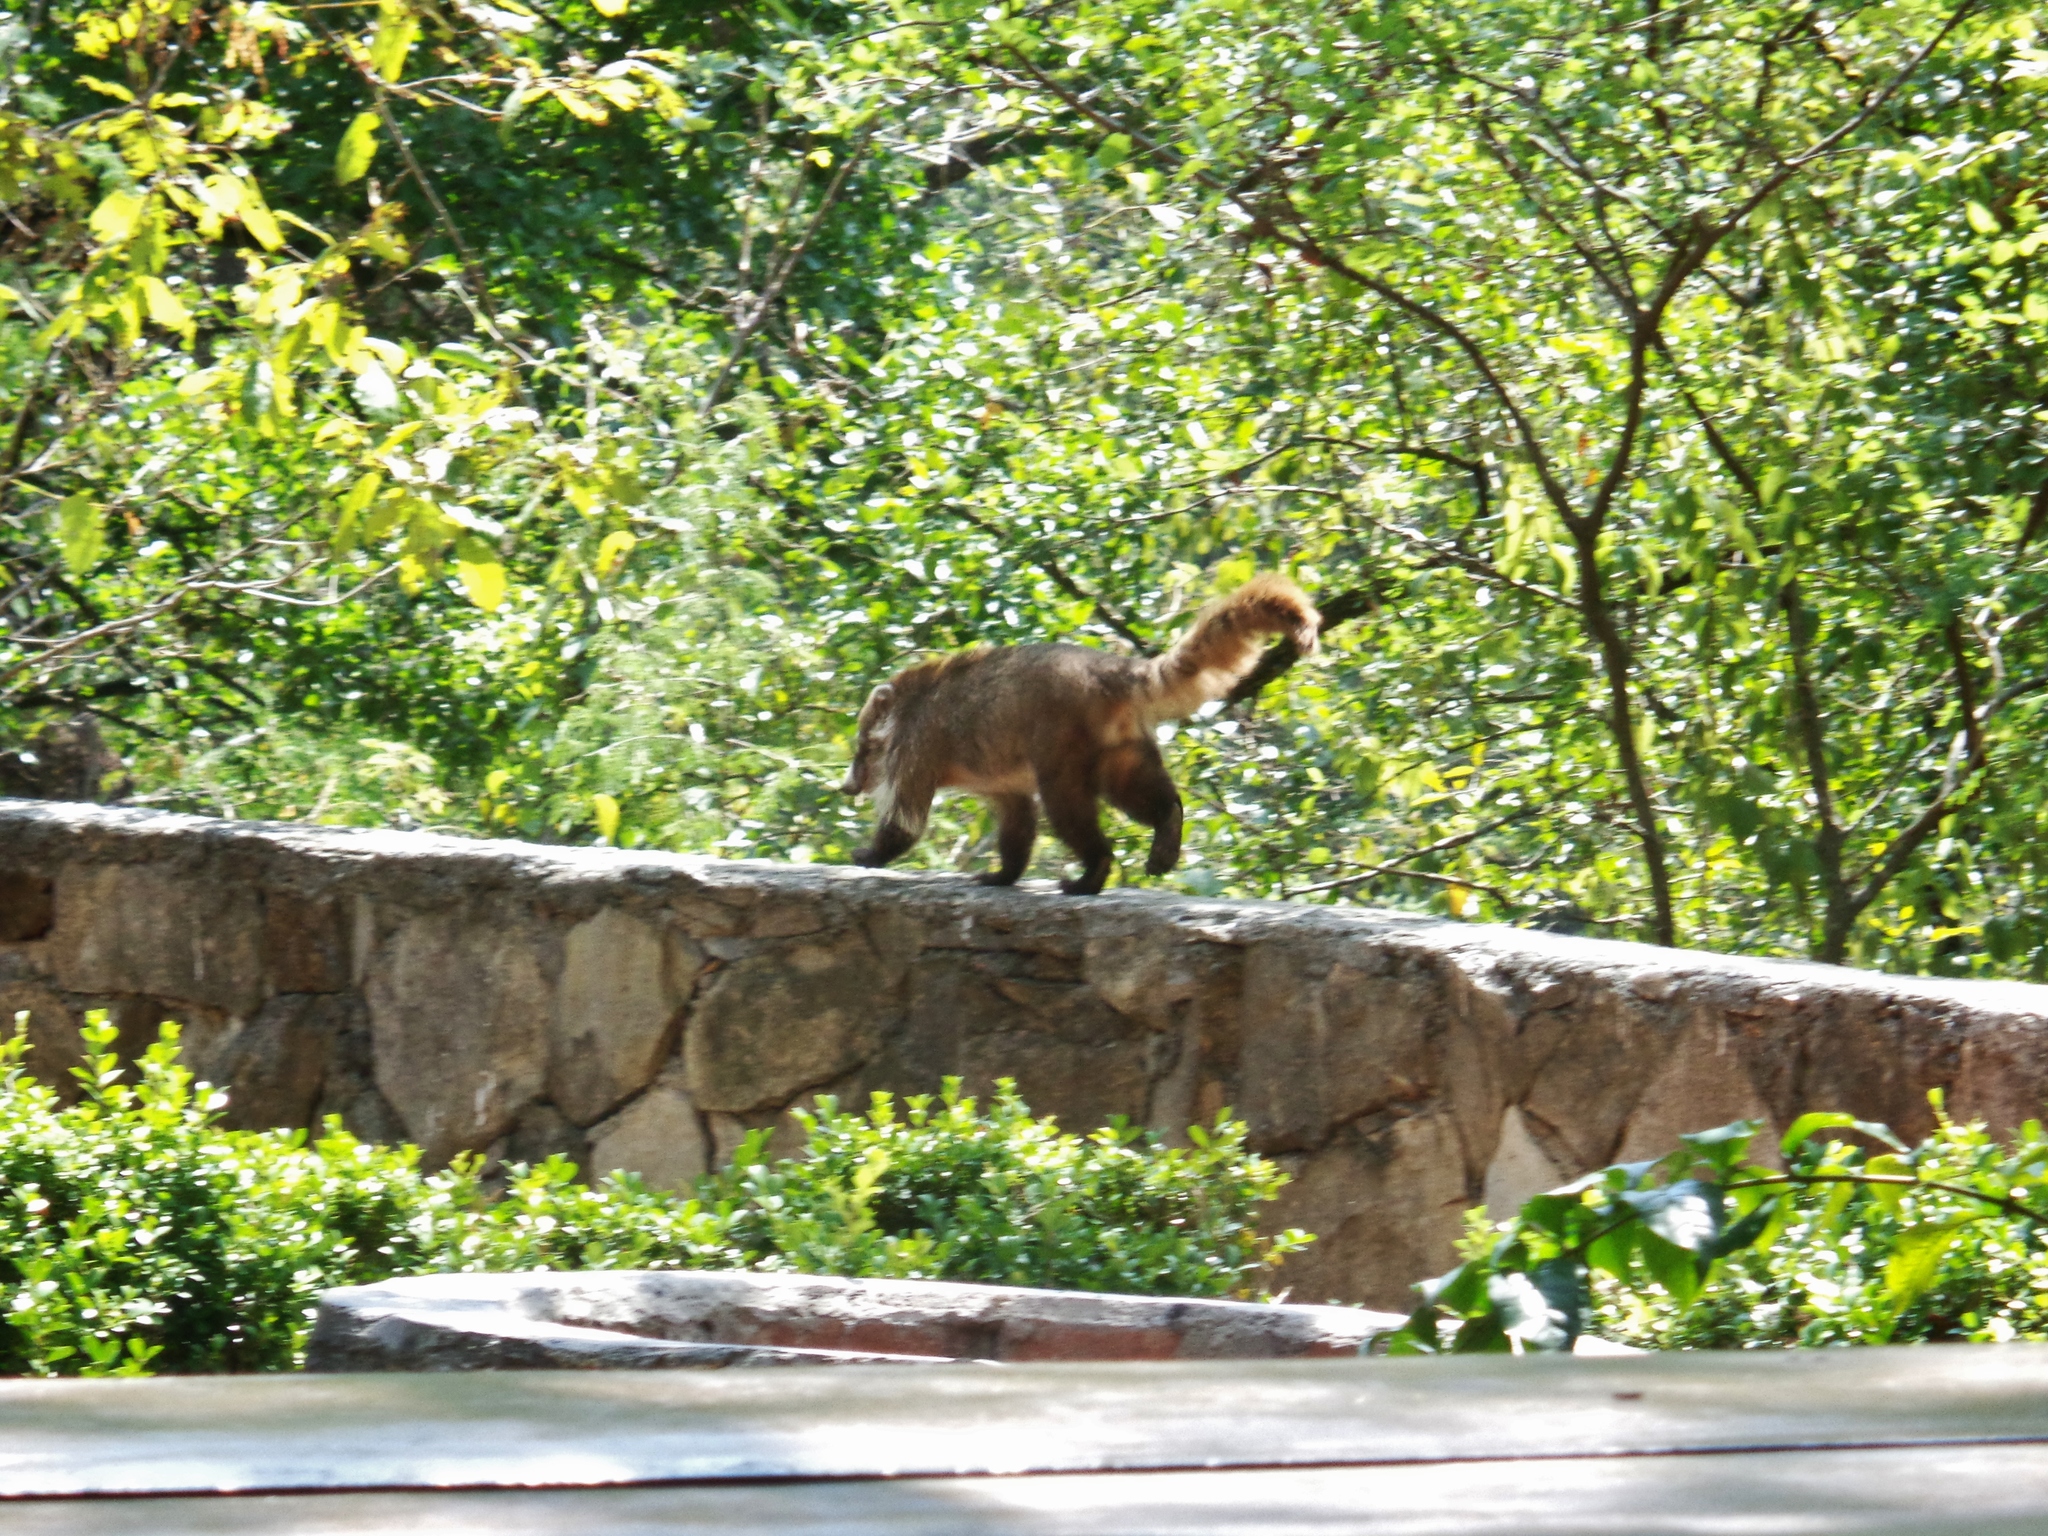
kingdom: Animalia
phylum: Chordata
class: Mammalia
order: Carnivora
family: Procyonidae
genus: Nasua
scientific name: Nasua narica
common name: White-nosed coati
